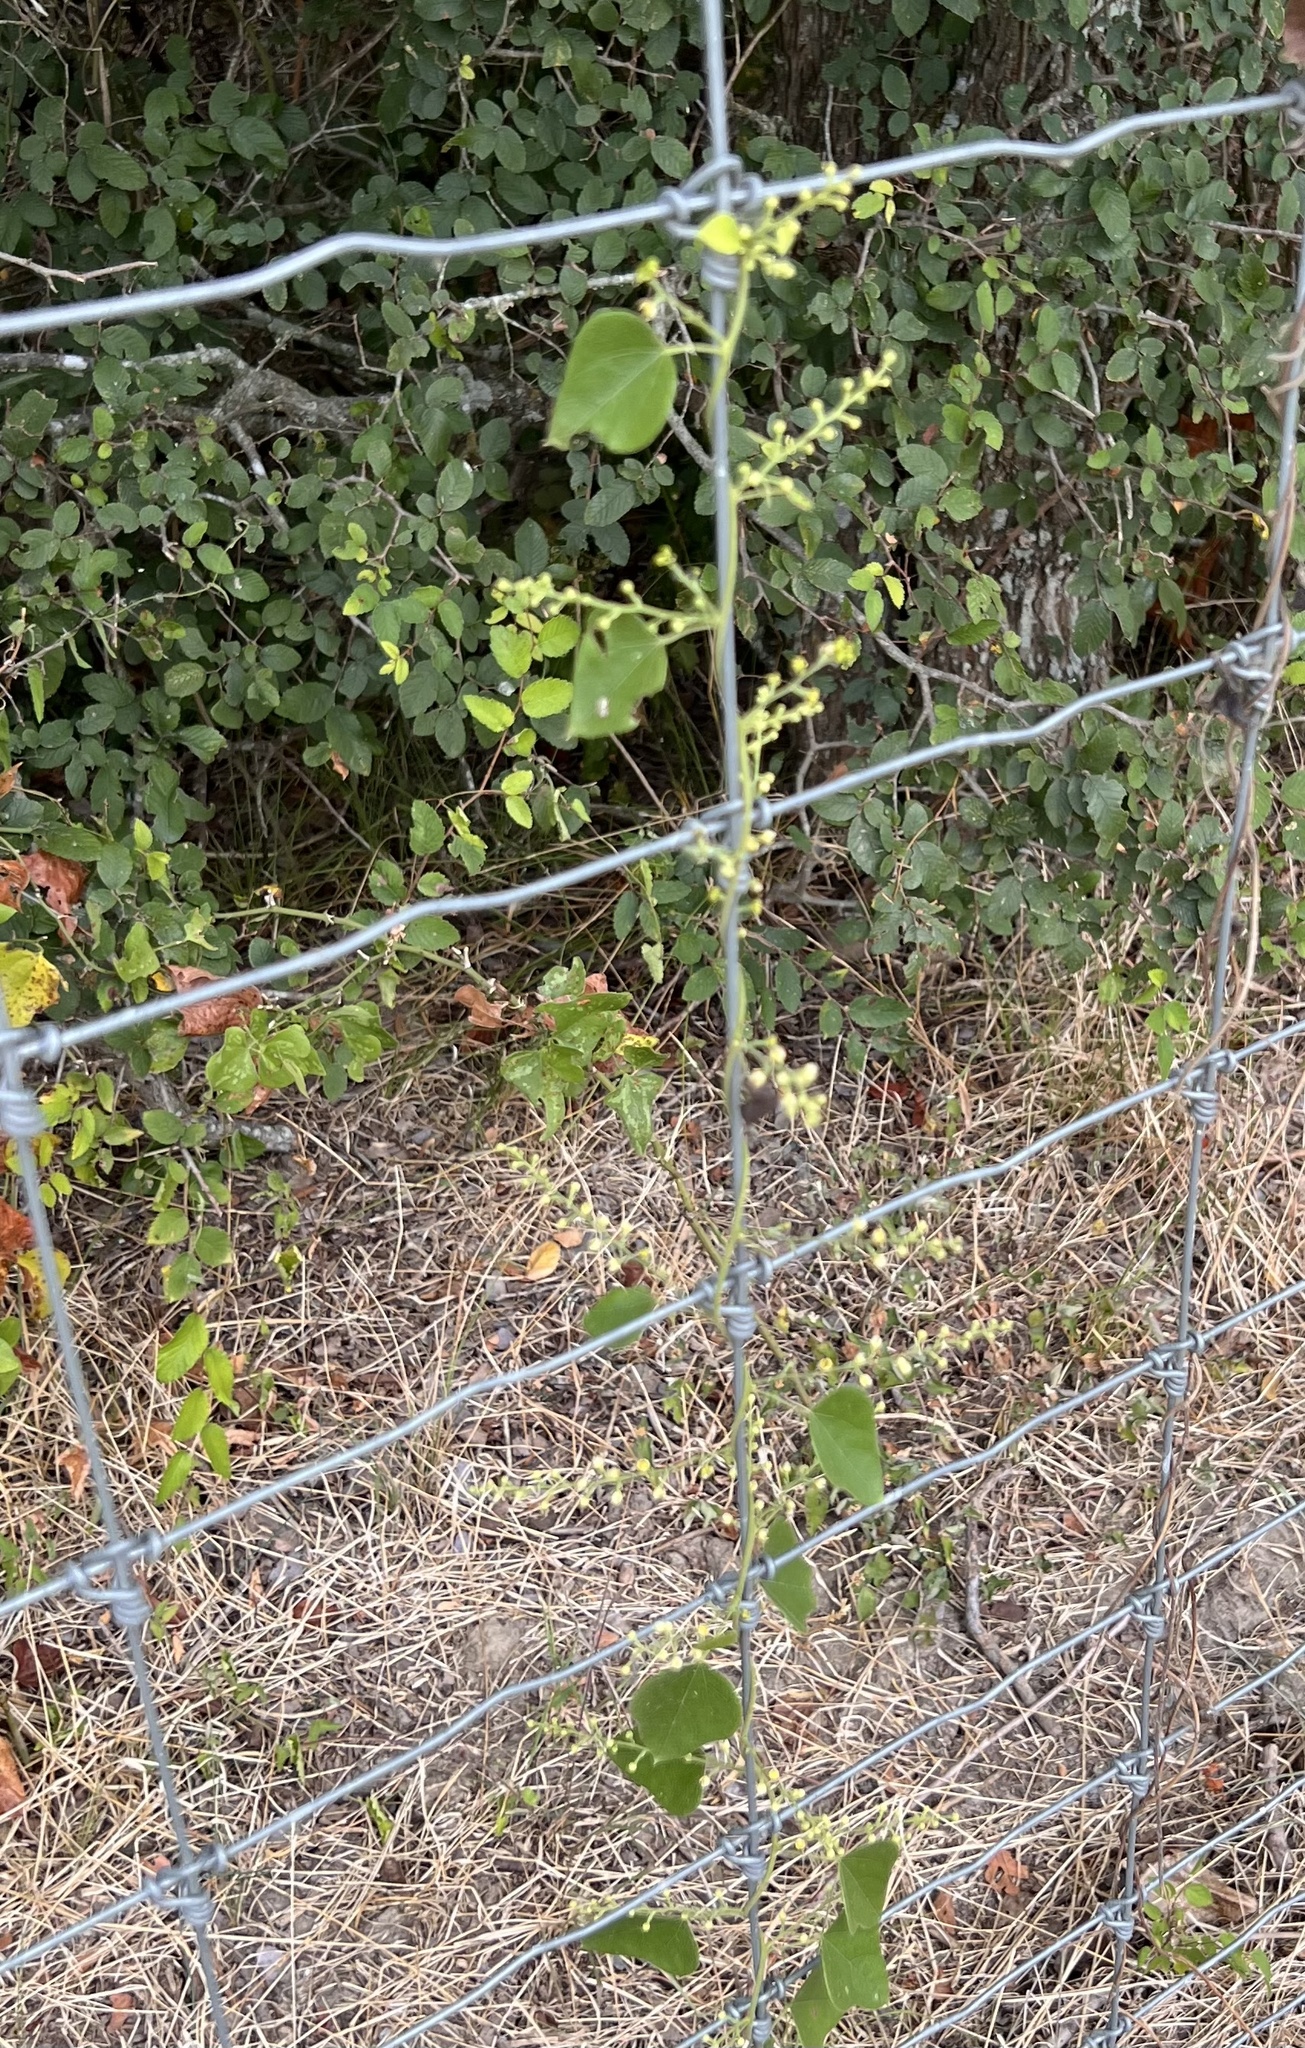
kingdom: Plantae
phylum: Tracheophyta
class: Magnoliopsida
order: Ranunculales
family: Menispermaceae
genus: Cocculus
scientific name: Cocculus carolinus
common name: Carolina moonseed
